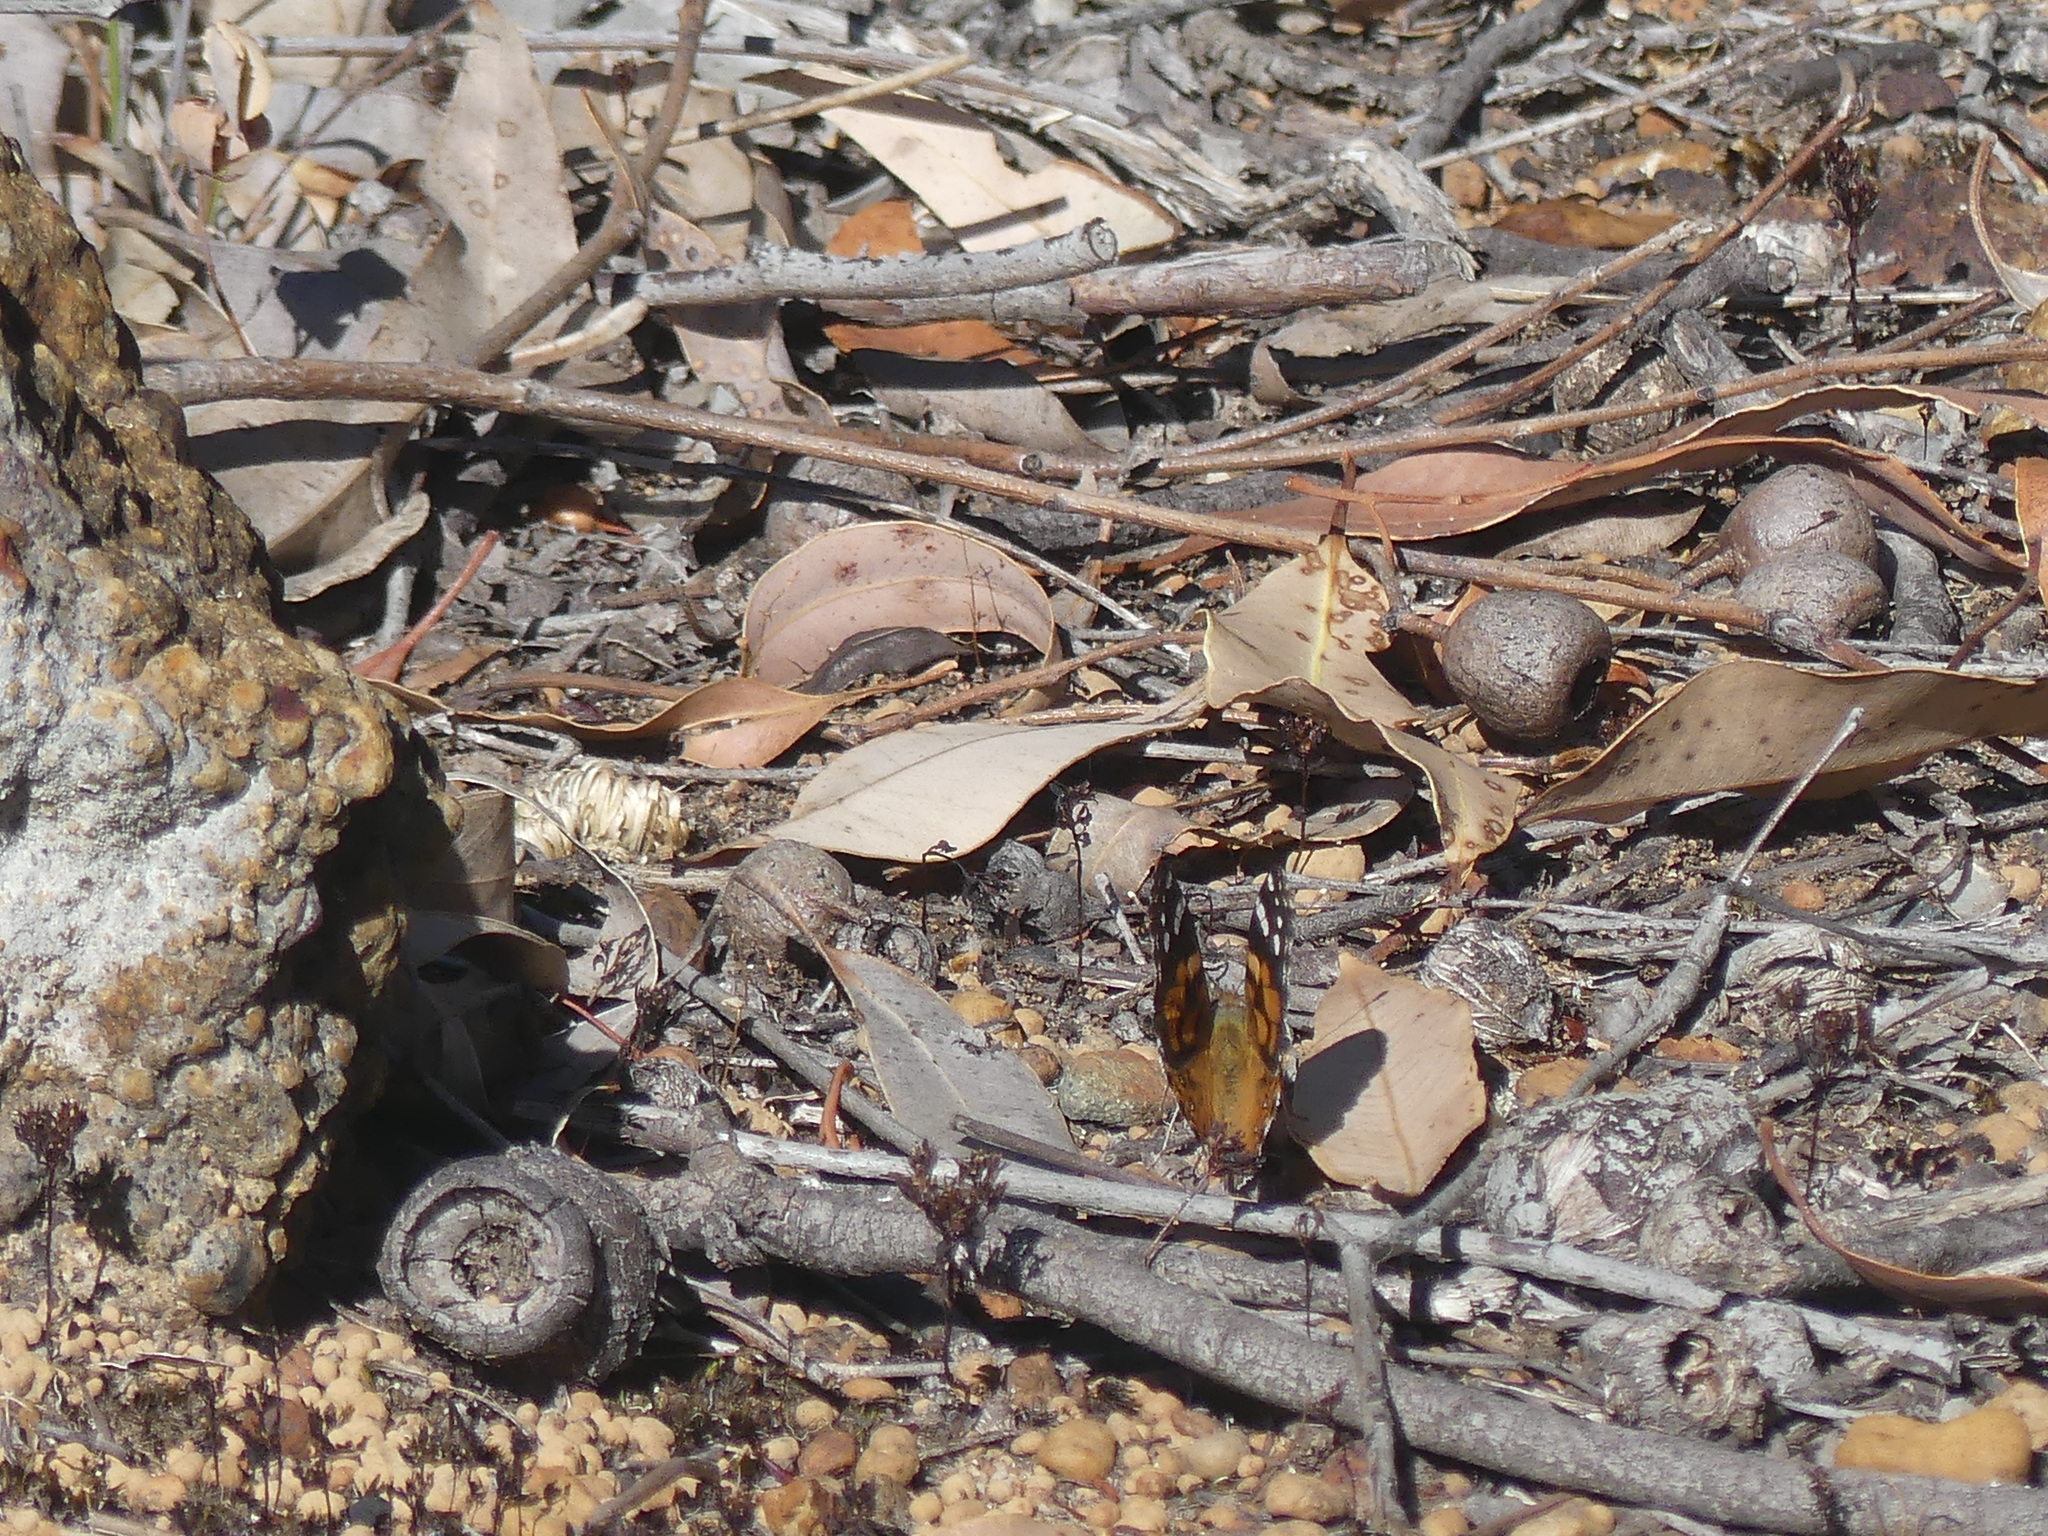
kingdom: Animalia
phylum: Arthropoda
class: Insecta
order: Lepidoptera
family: Nymphalidae
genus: Vanessa
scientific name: Vanessa kershawi
